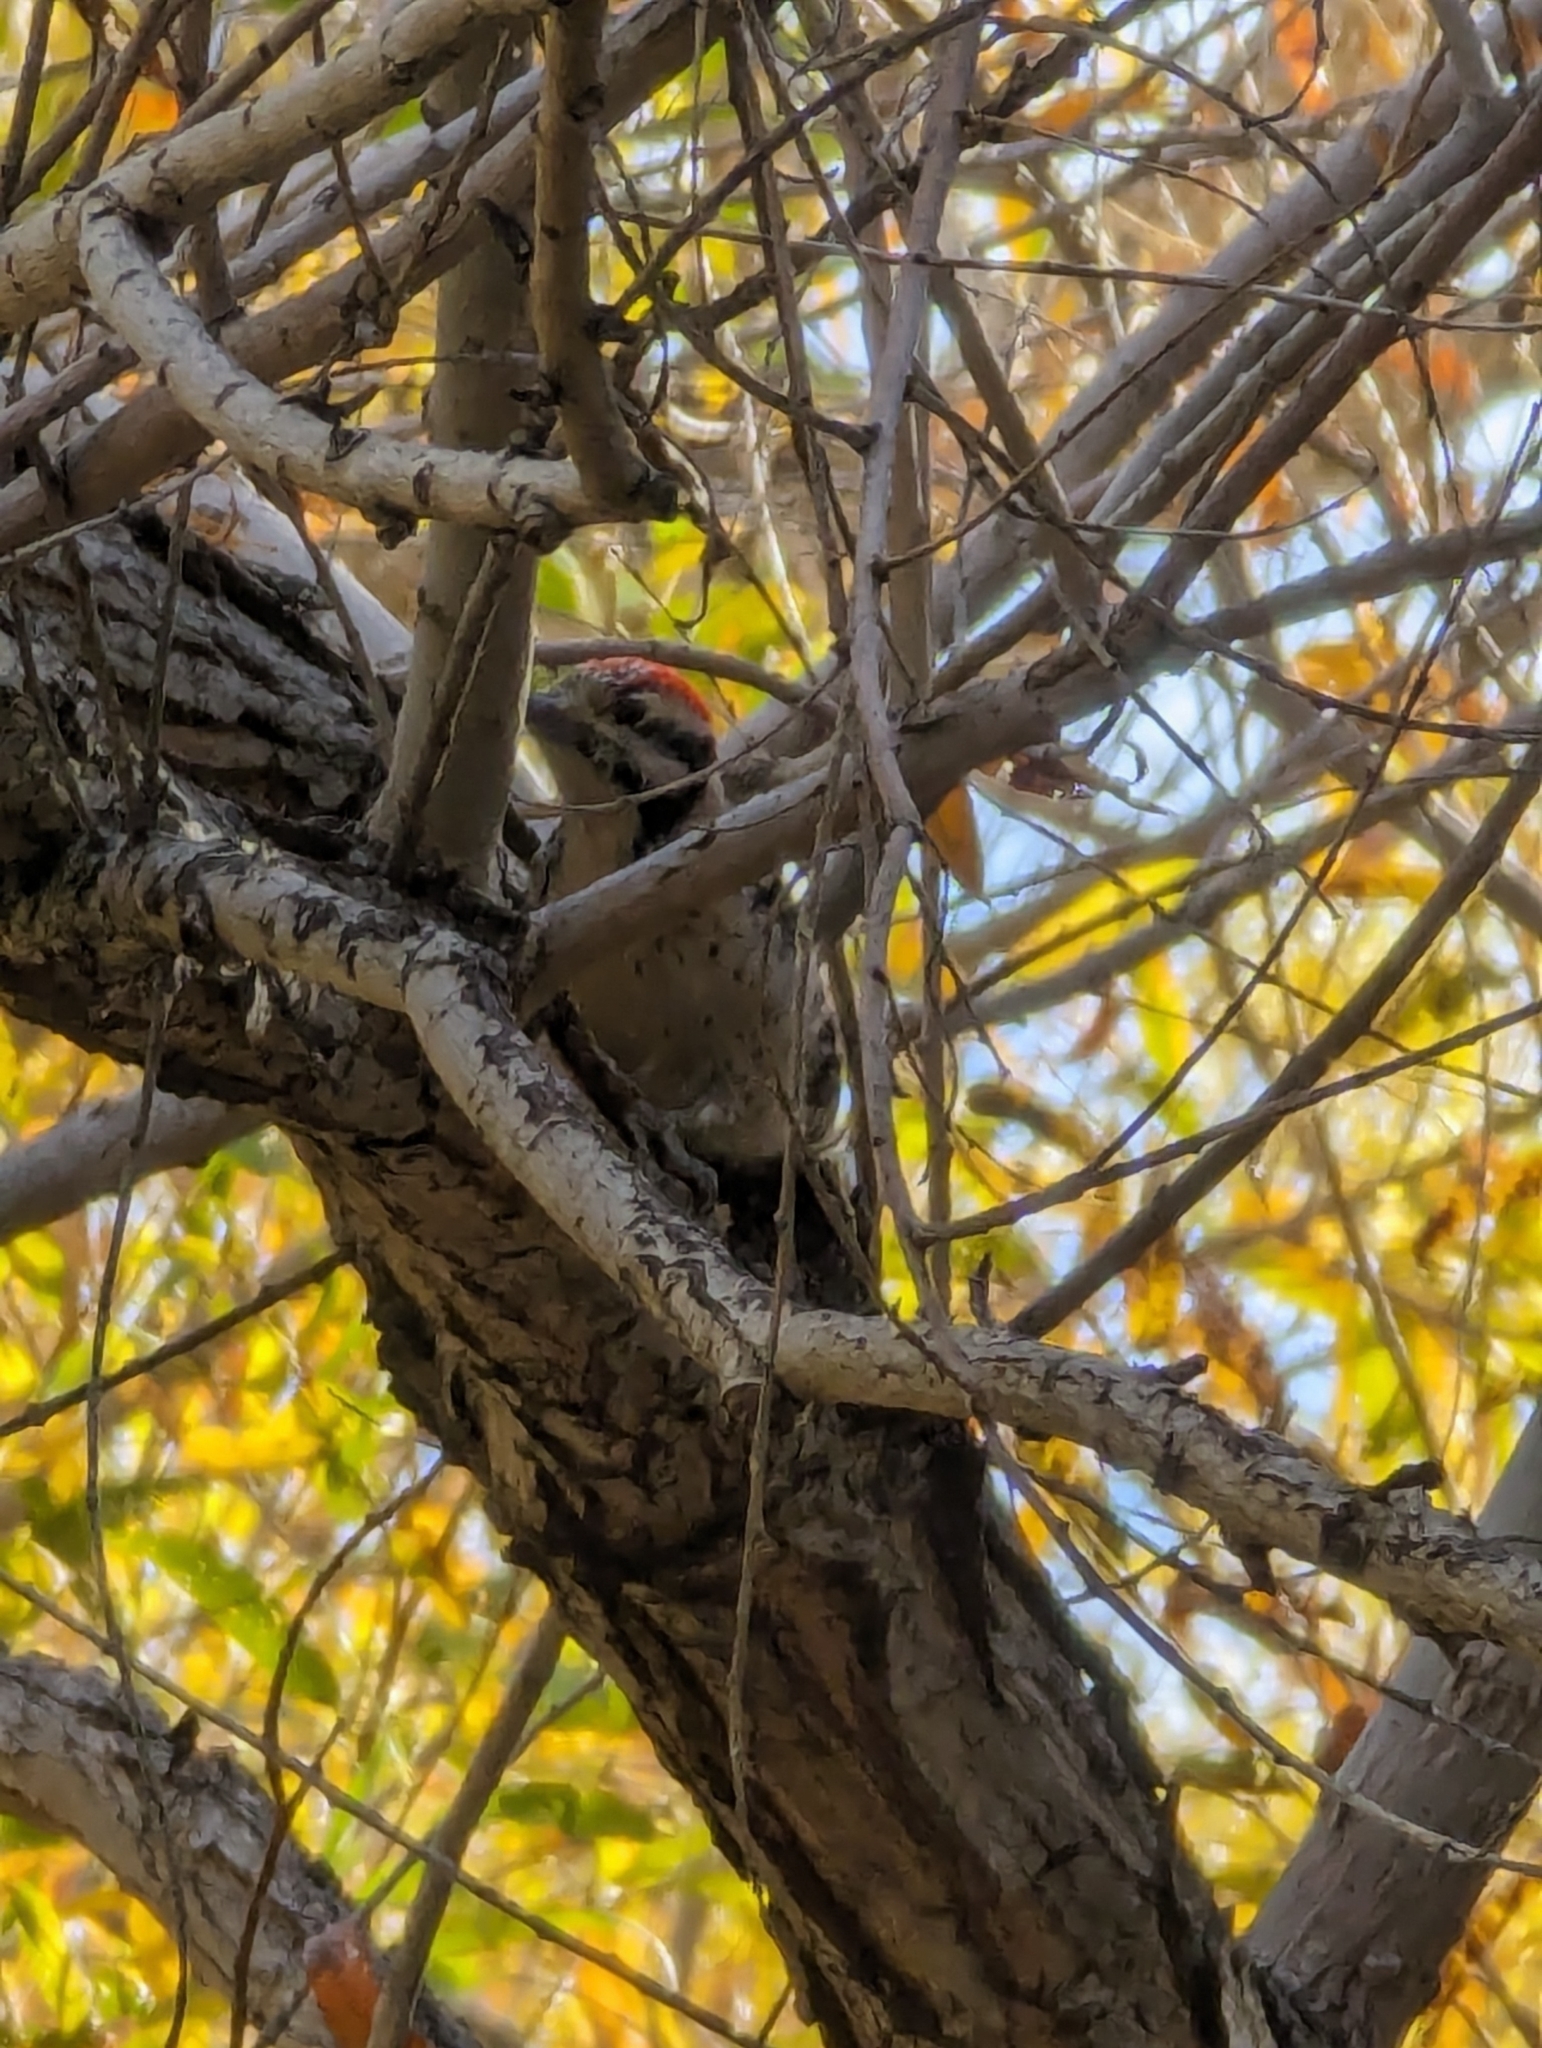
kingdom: Animalia
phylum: Chordata
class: Aves
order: Piciformes
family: Picidae
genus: Dryobates
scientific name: Dryobates scalaris
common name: Ladder-backed woodpecker
